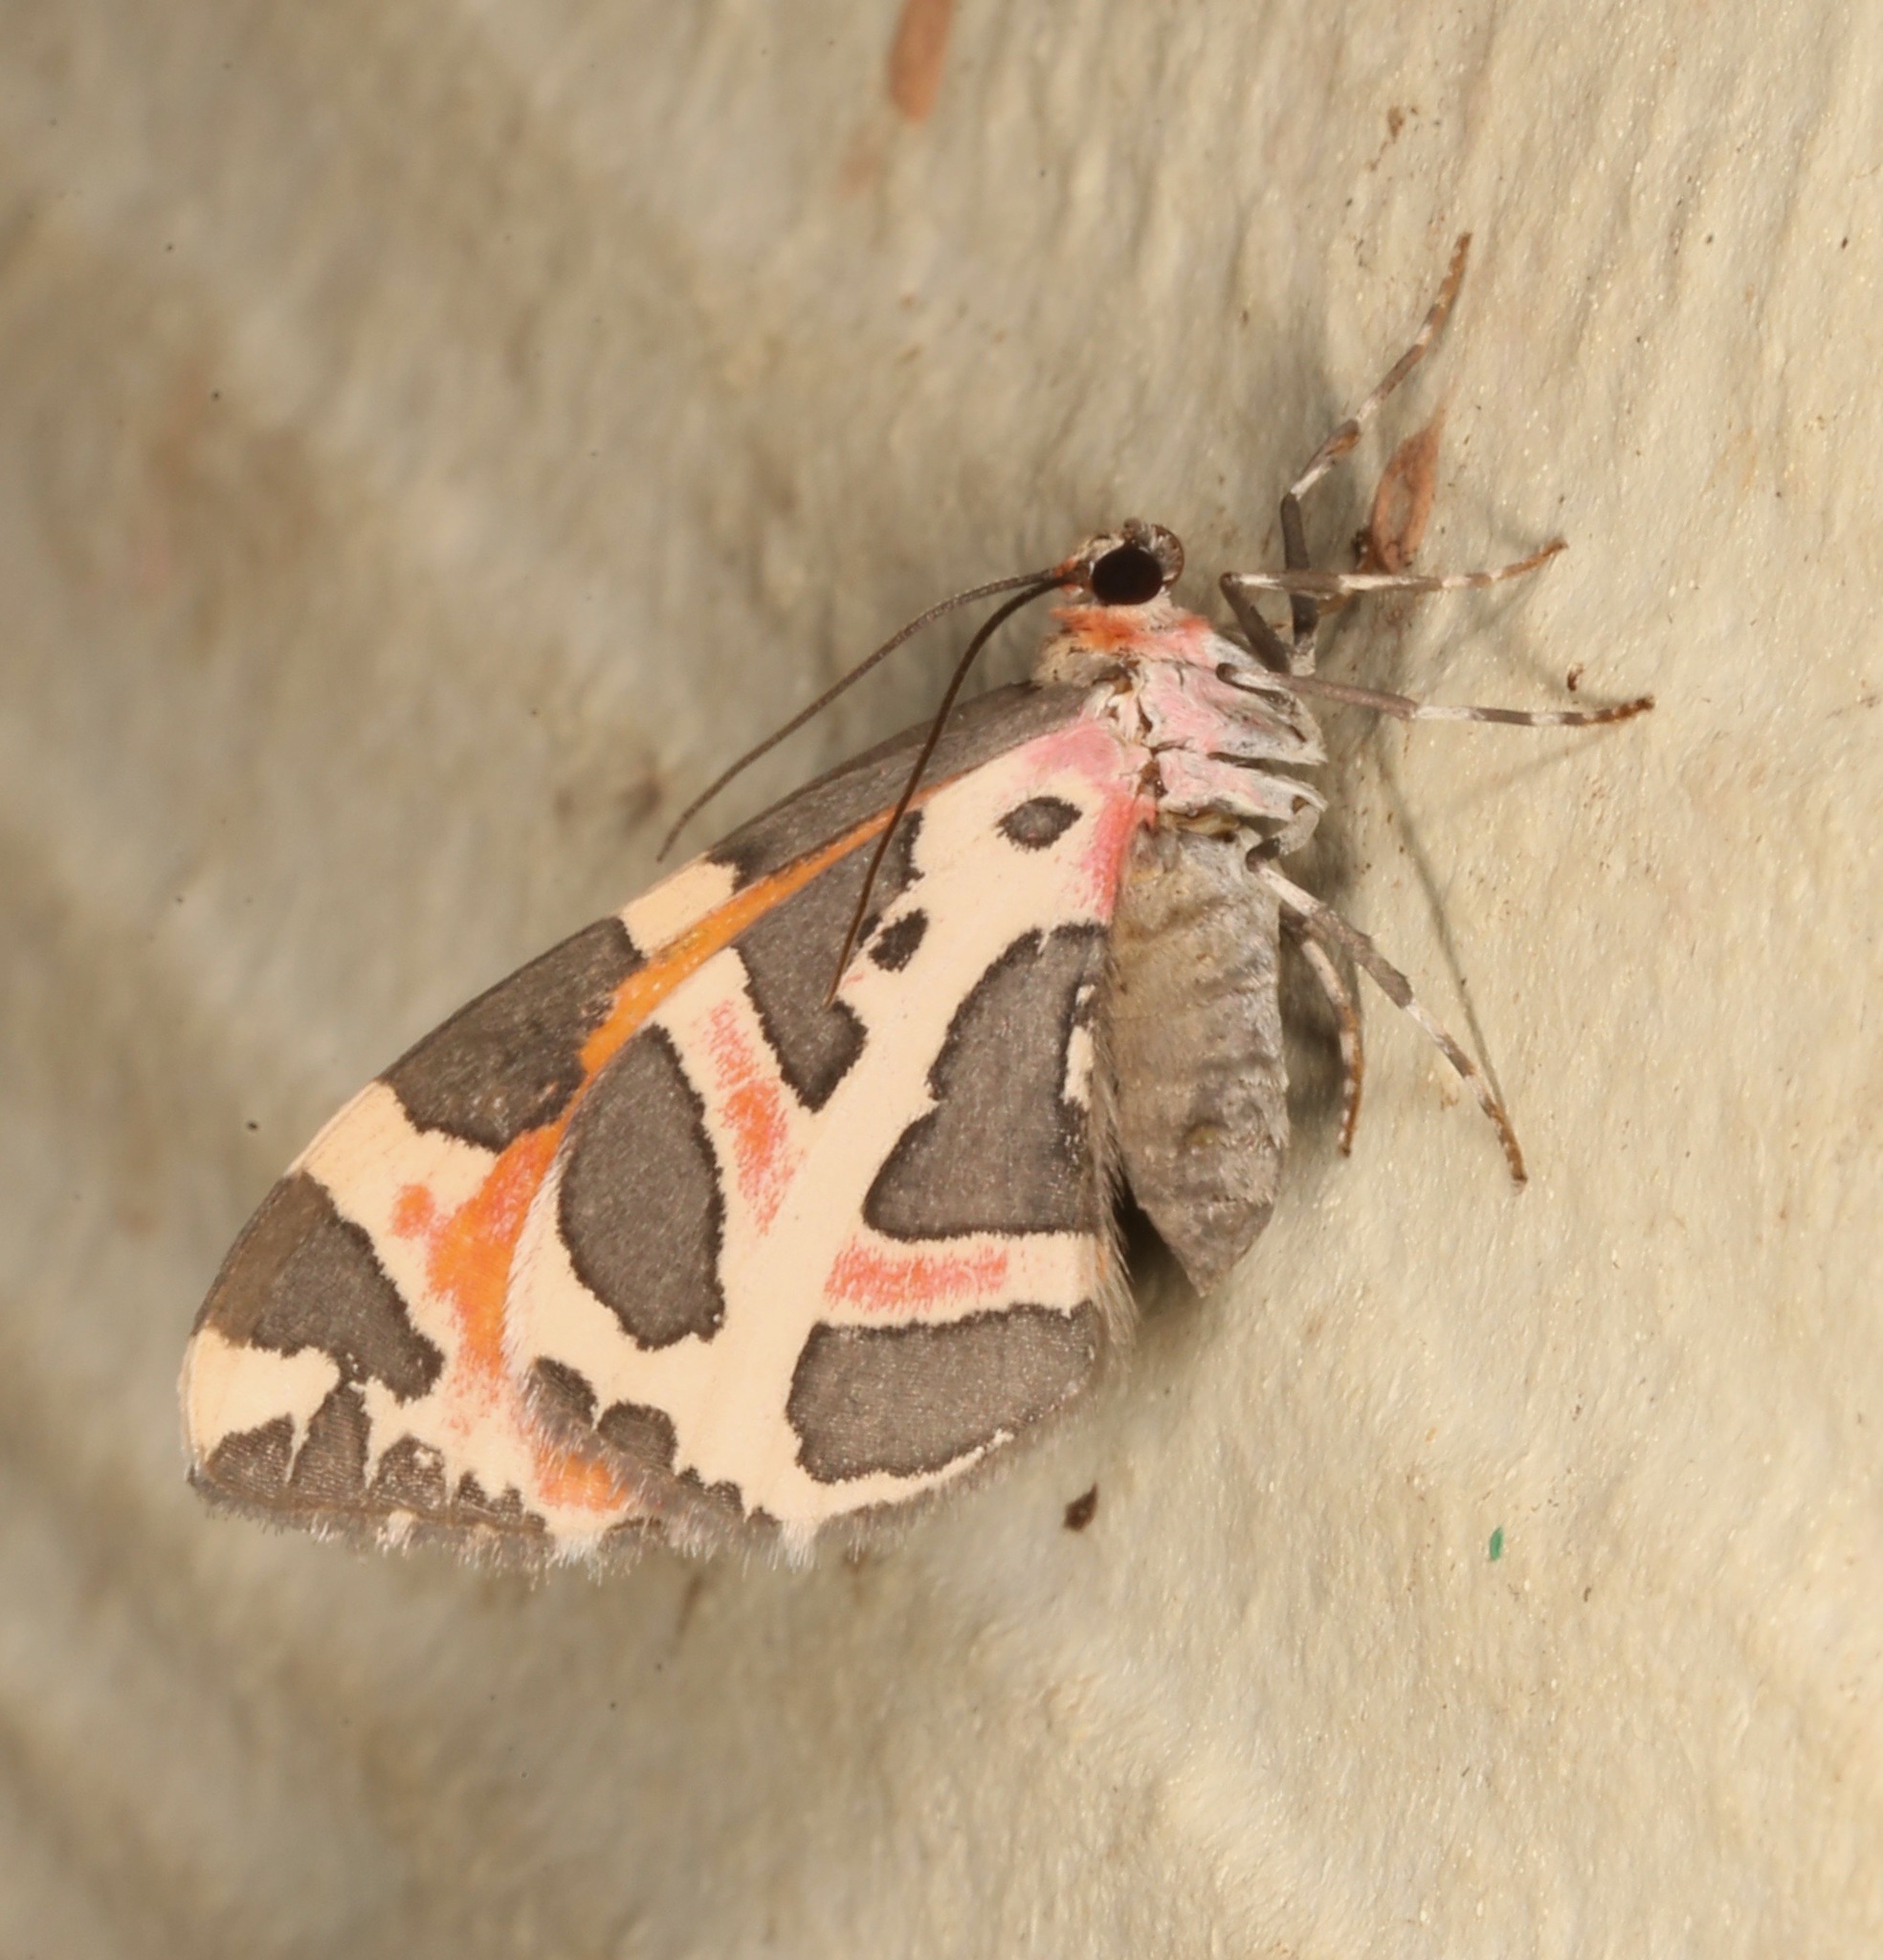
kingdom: Animalia
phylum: Arthropoda
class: Insecta
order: Lepidoptera
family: Geometridae
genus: Stamnodes
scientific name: Stamnodes deceptiva
